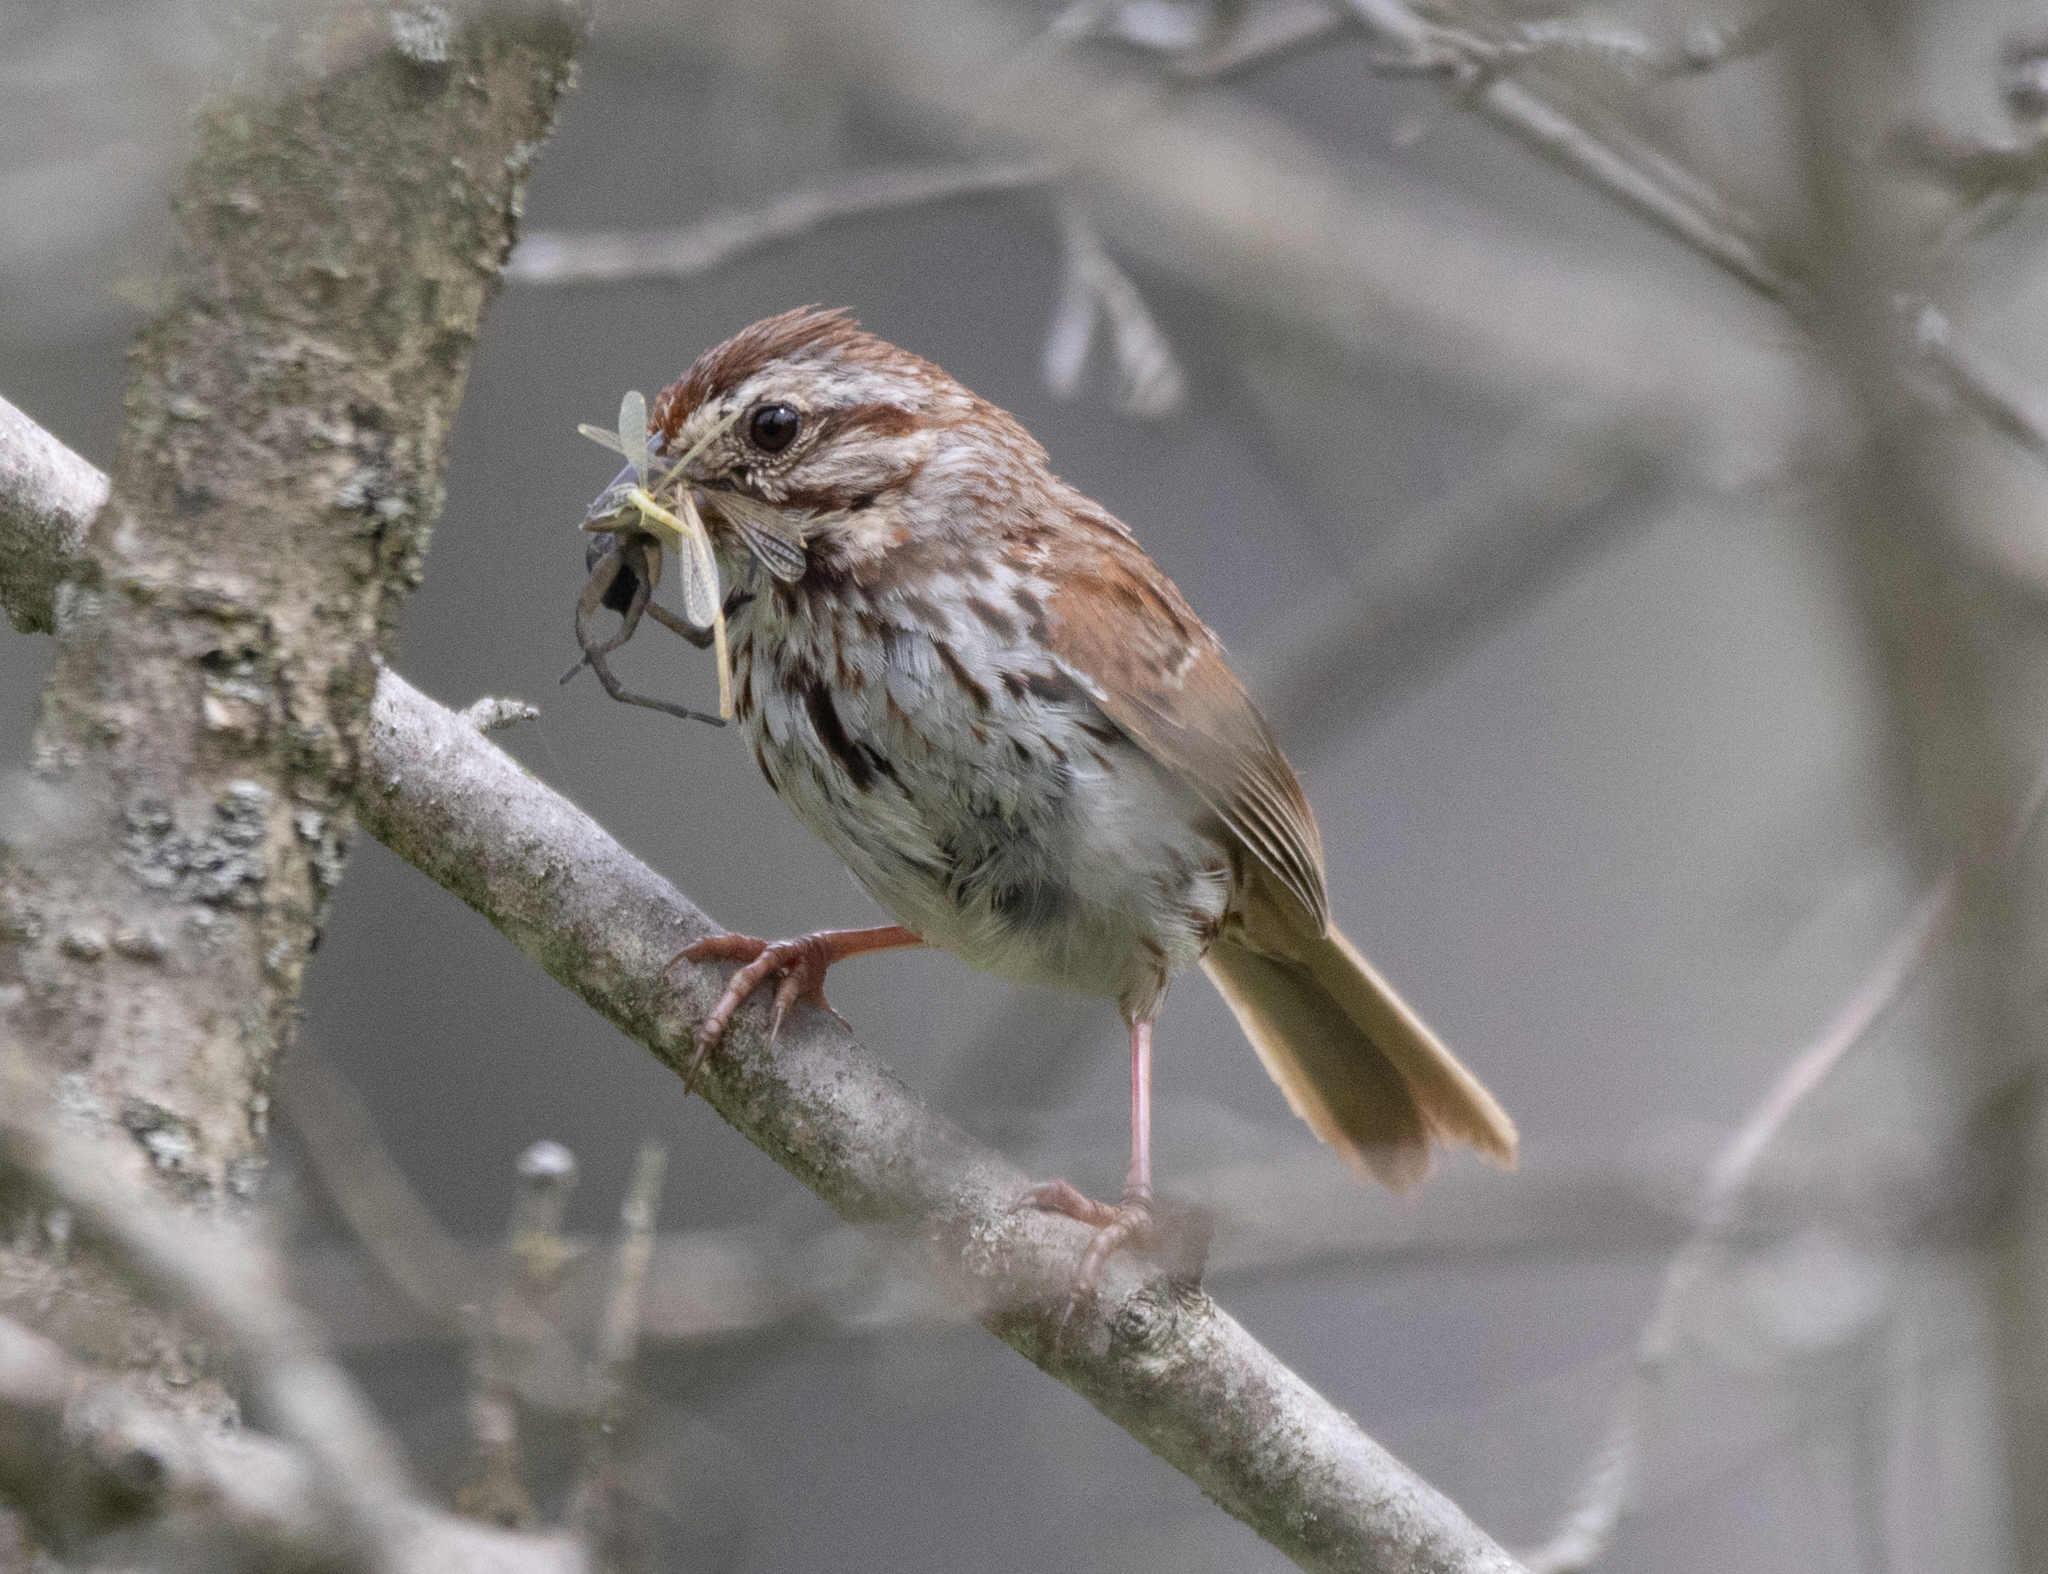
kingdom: Animalia
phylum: Chordata
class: Aves
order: Passeriformes
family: Passerellidae
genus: Melospiza
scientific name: Melospiza melodia
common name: Song sparrow
